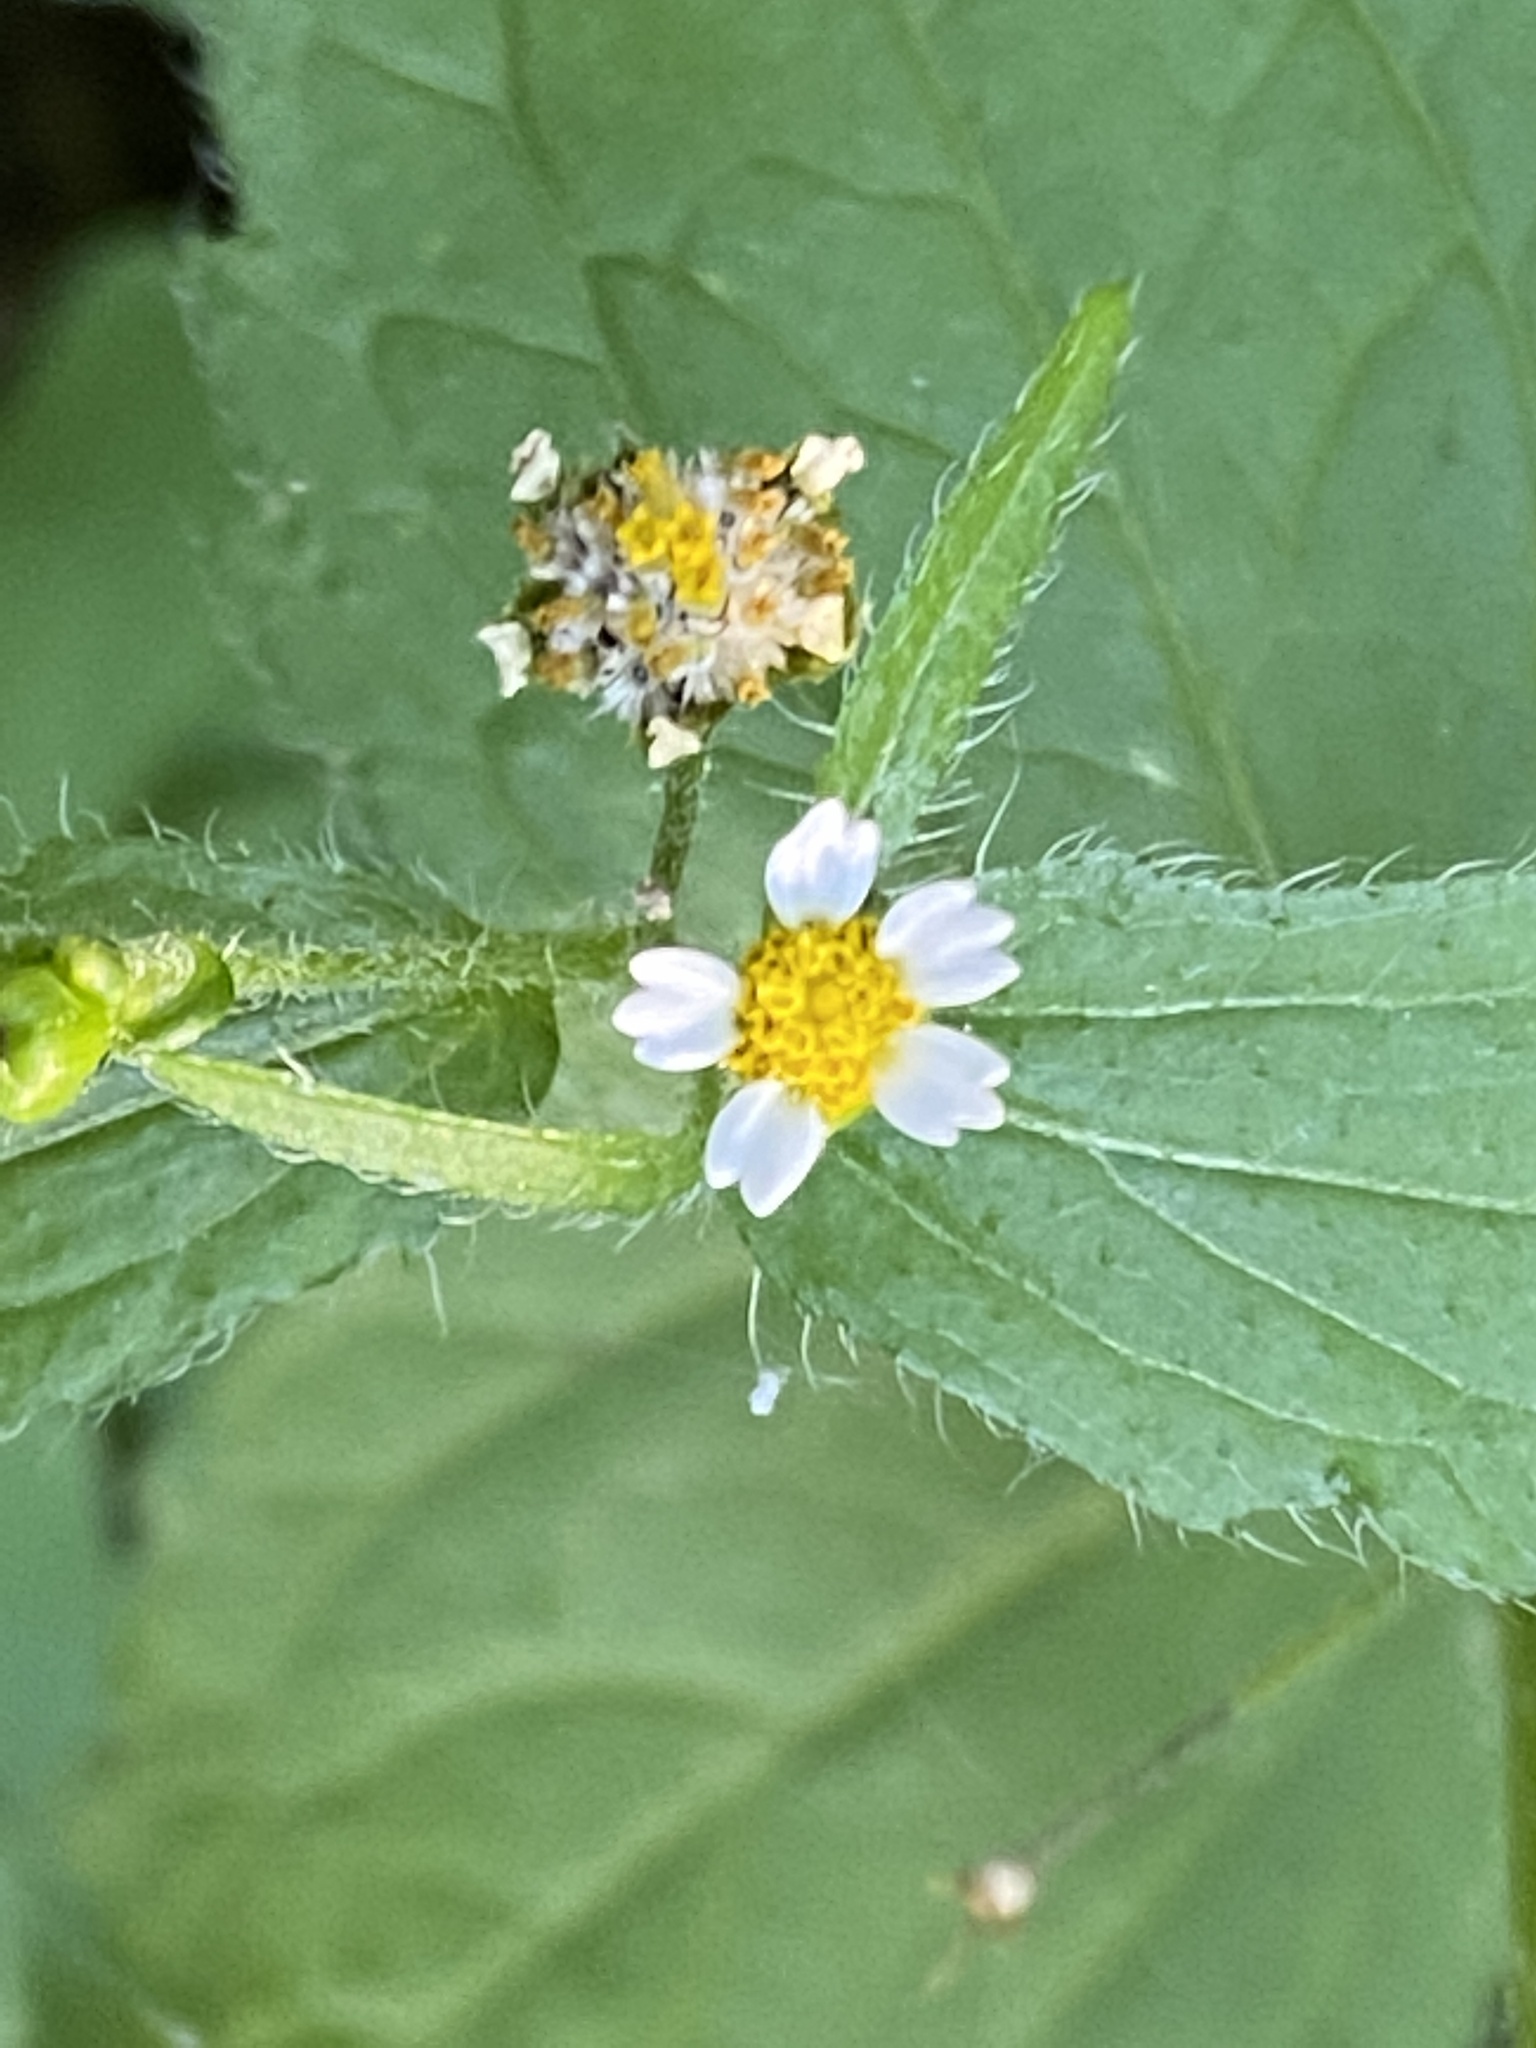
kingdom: Plantae
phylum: Tracheophyta
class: Magnoliopsida
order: Asterales
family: Asteraceae
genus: Galinsoga
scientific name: Galinsoga quadriradiata
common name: Shaggy soldier
